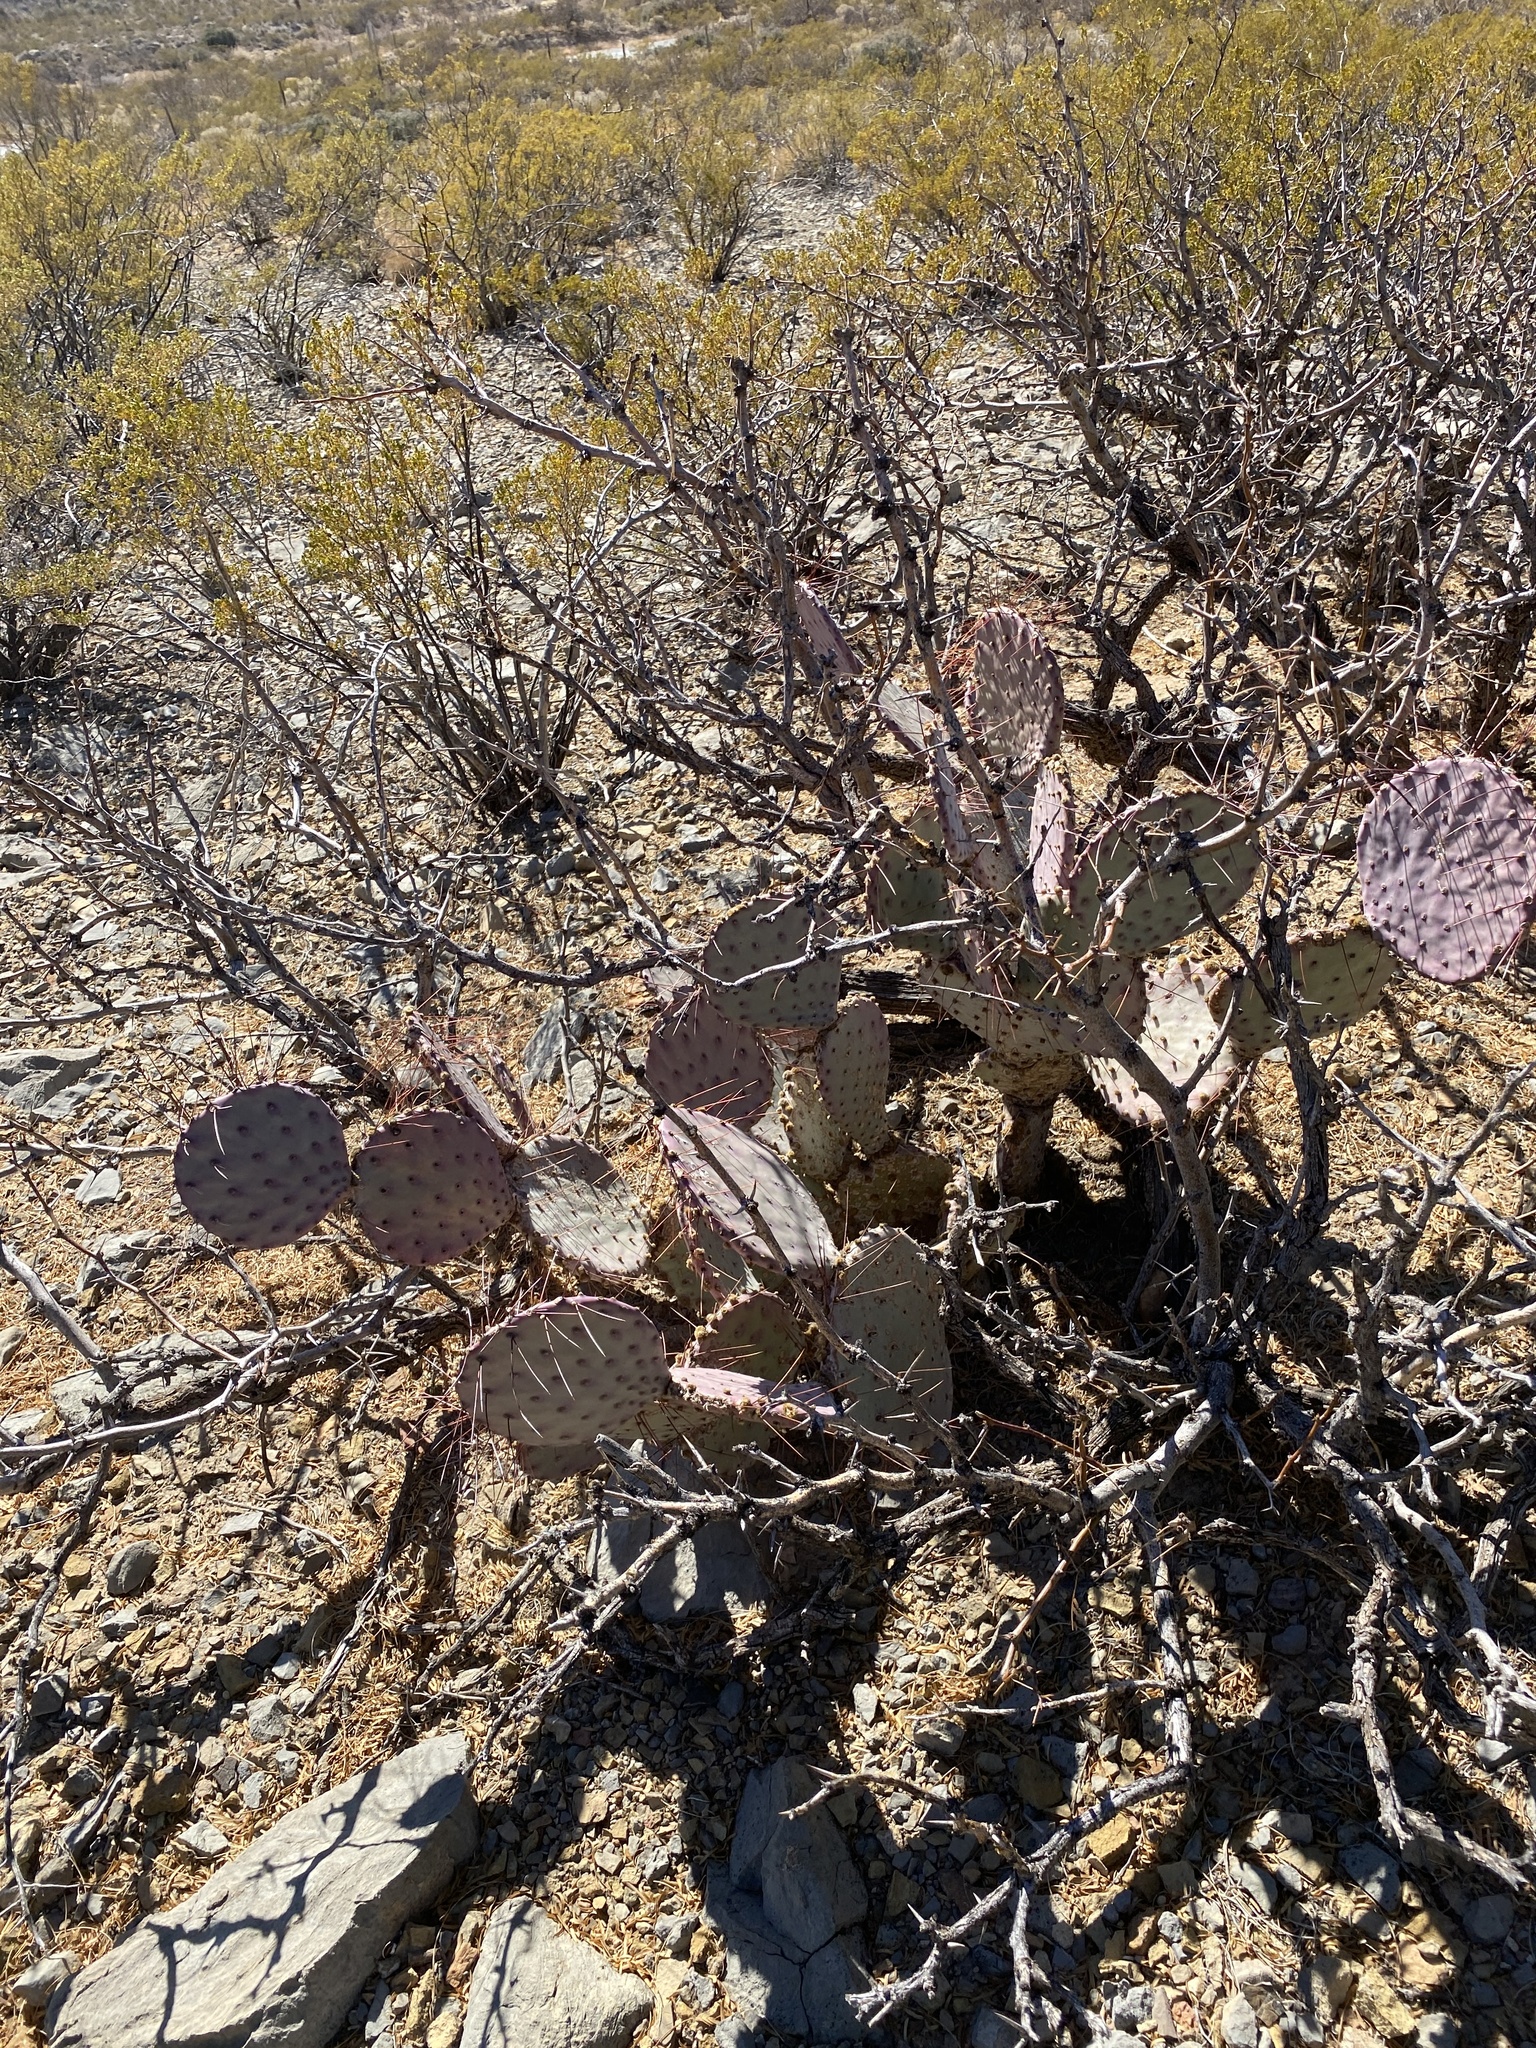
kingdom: Plantae
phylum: Tracheophyta
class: Magnoliopsida
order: Caryophyllales
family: Cactaceae
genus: Opuntia
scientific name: Opuntia macrocentra
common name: Purple prickly-pear
